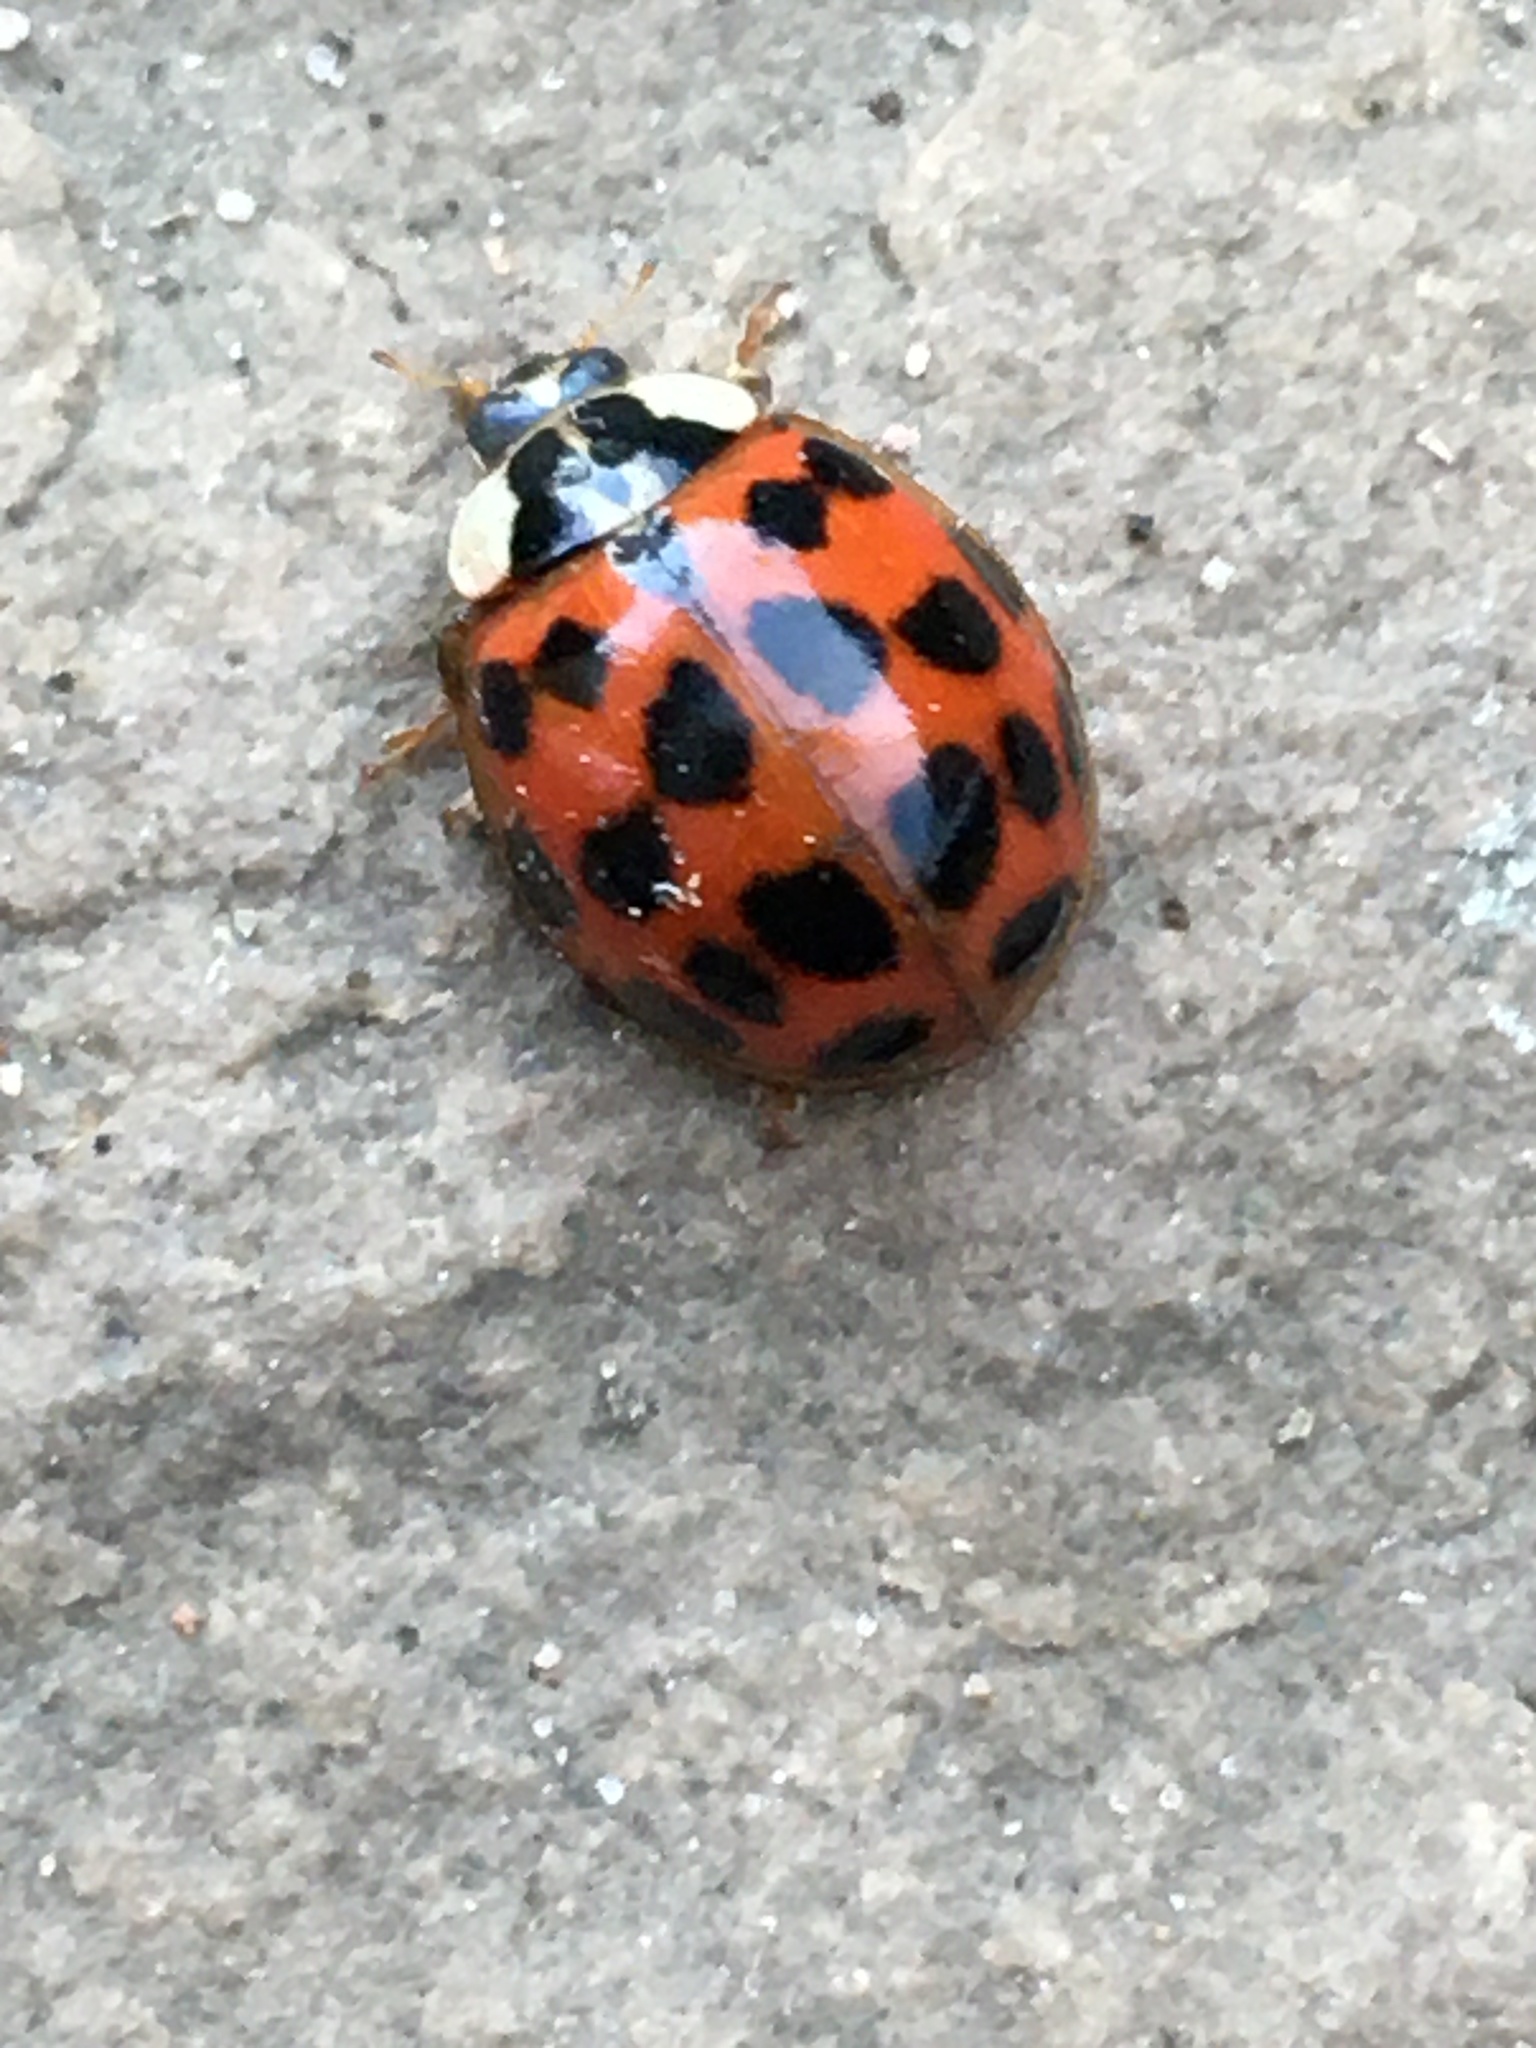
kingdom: Animalia
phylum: Arthropoda
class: Insecta
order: Coleoptera
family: Coccinellidae
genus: Harmonia
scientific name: Harmonia axyridis
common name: Harlequin ladybird
